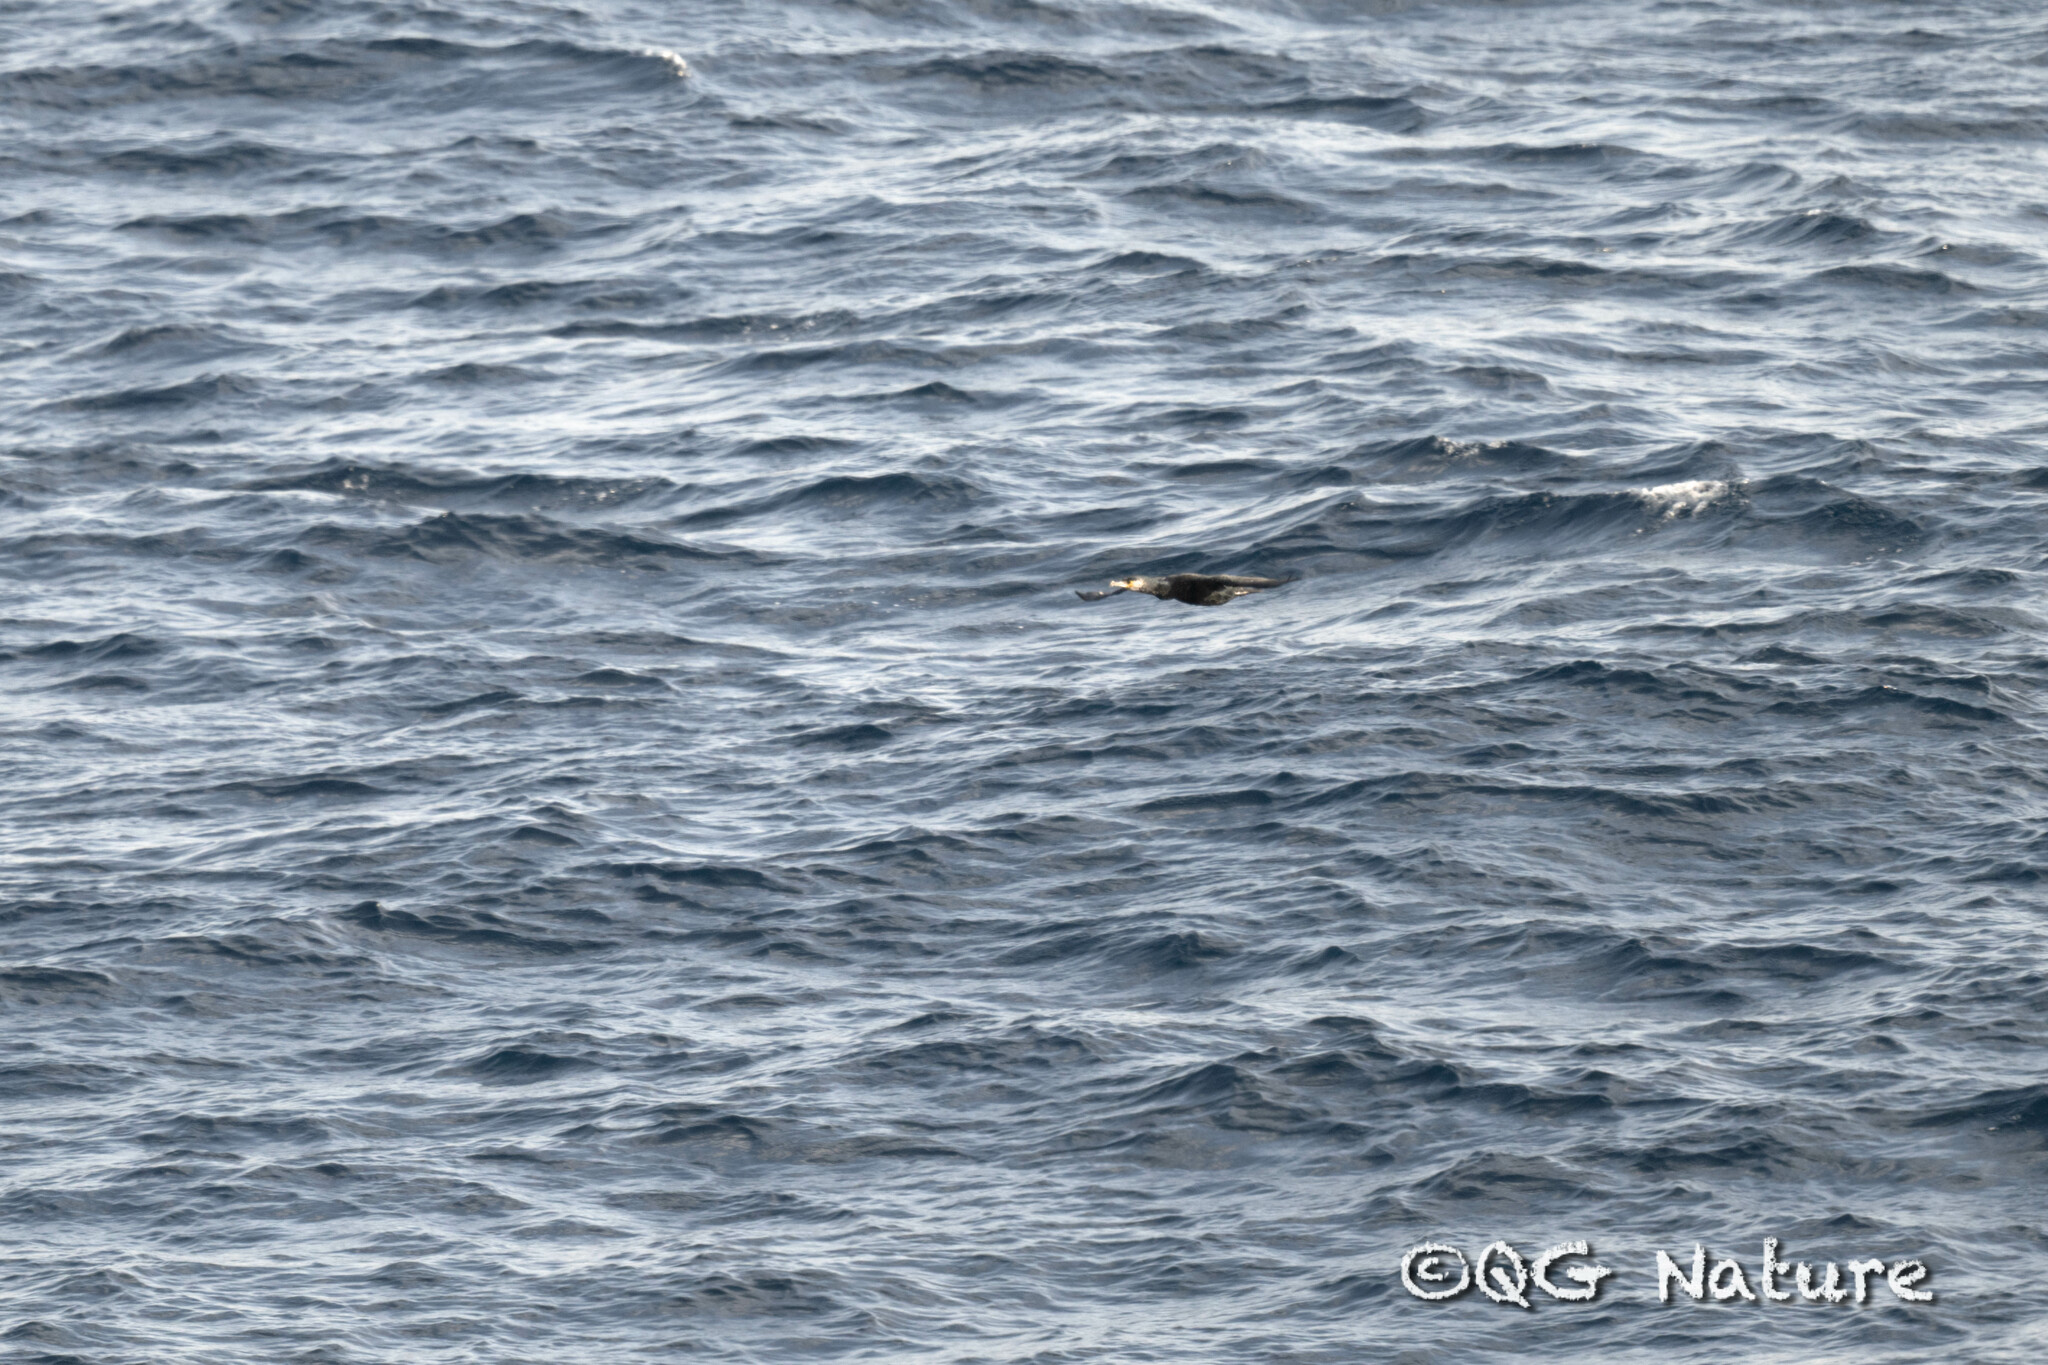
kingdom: Animalia
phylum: Chordata
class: Aves
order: Suliformes
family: Phalacrocoracidae
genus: Phalacrocorax
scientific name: Phalacrocorax capillatus
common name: Japanese cormorant
